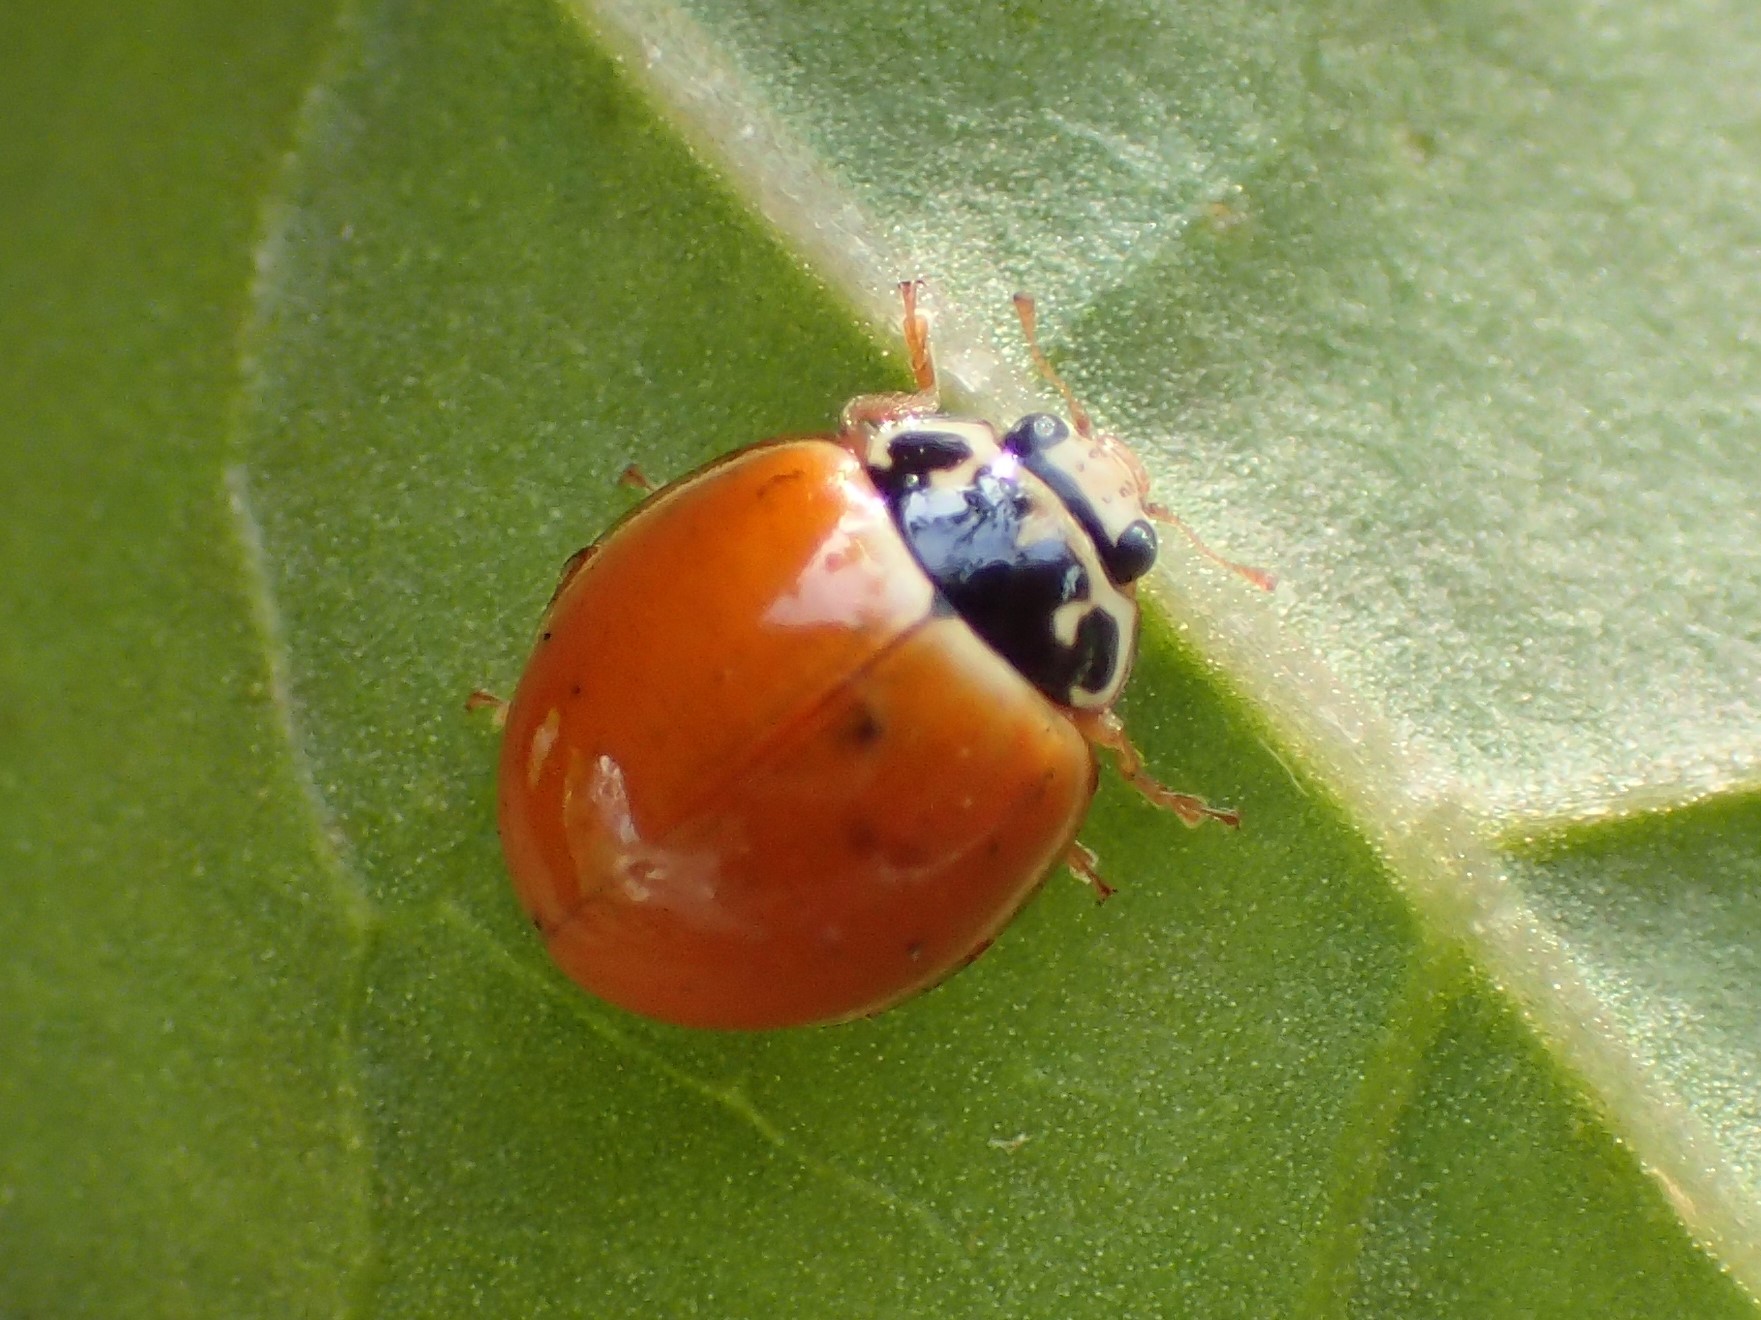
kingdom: Animalia
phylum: Arthropoda
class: Insecta
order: Coleoptera
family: Coccinellidae
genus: Cycloneda
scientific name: Cycloneda munda
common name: Polished lady beetle
